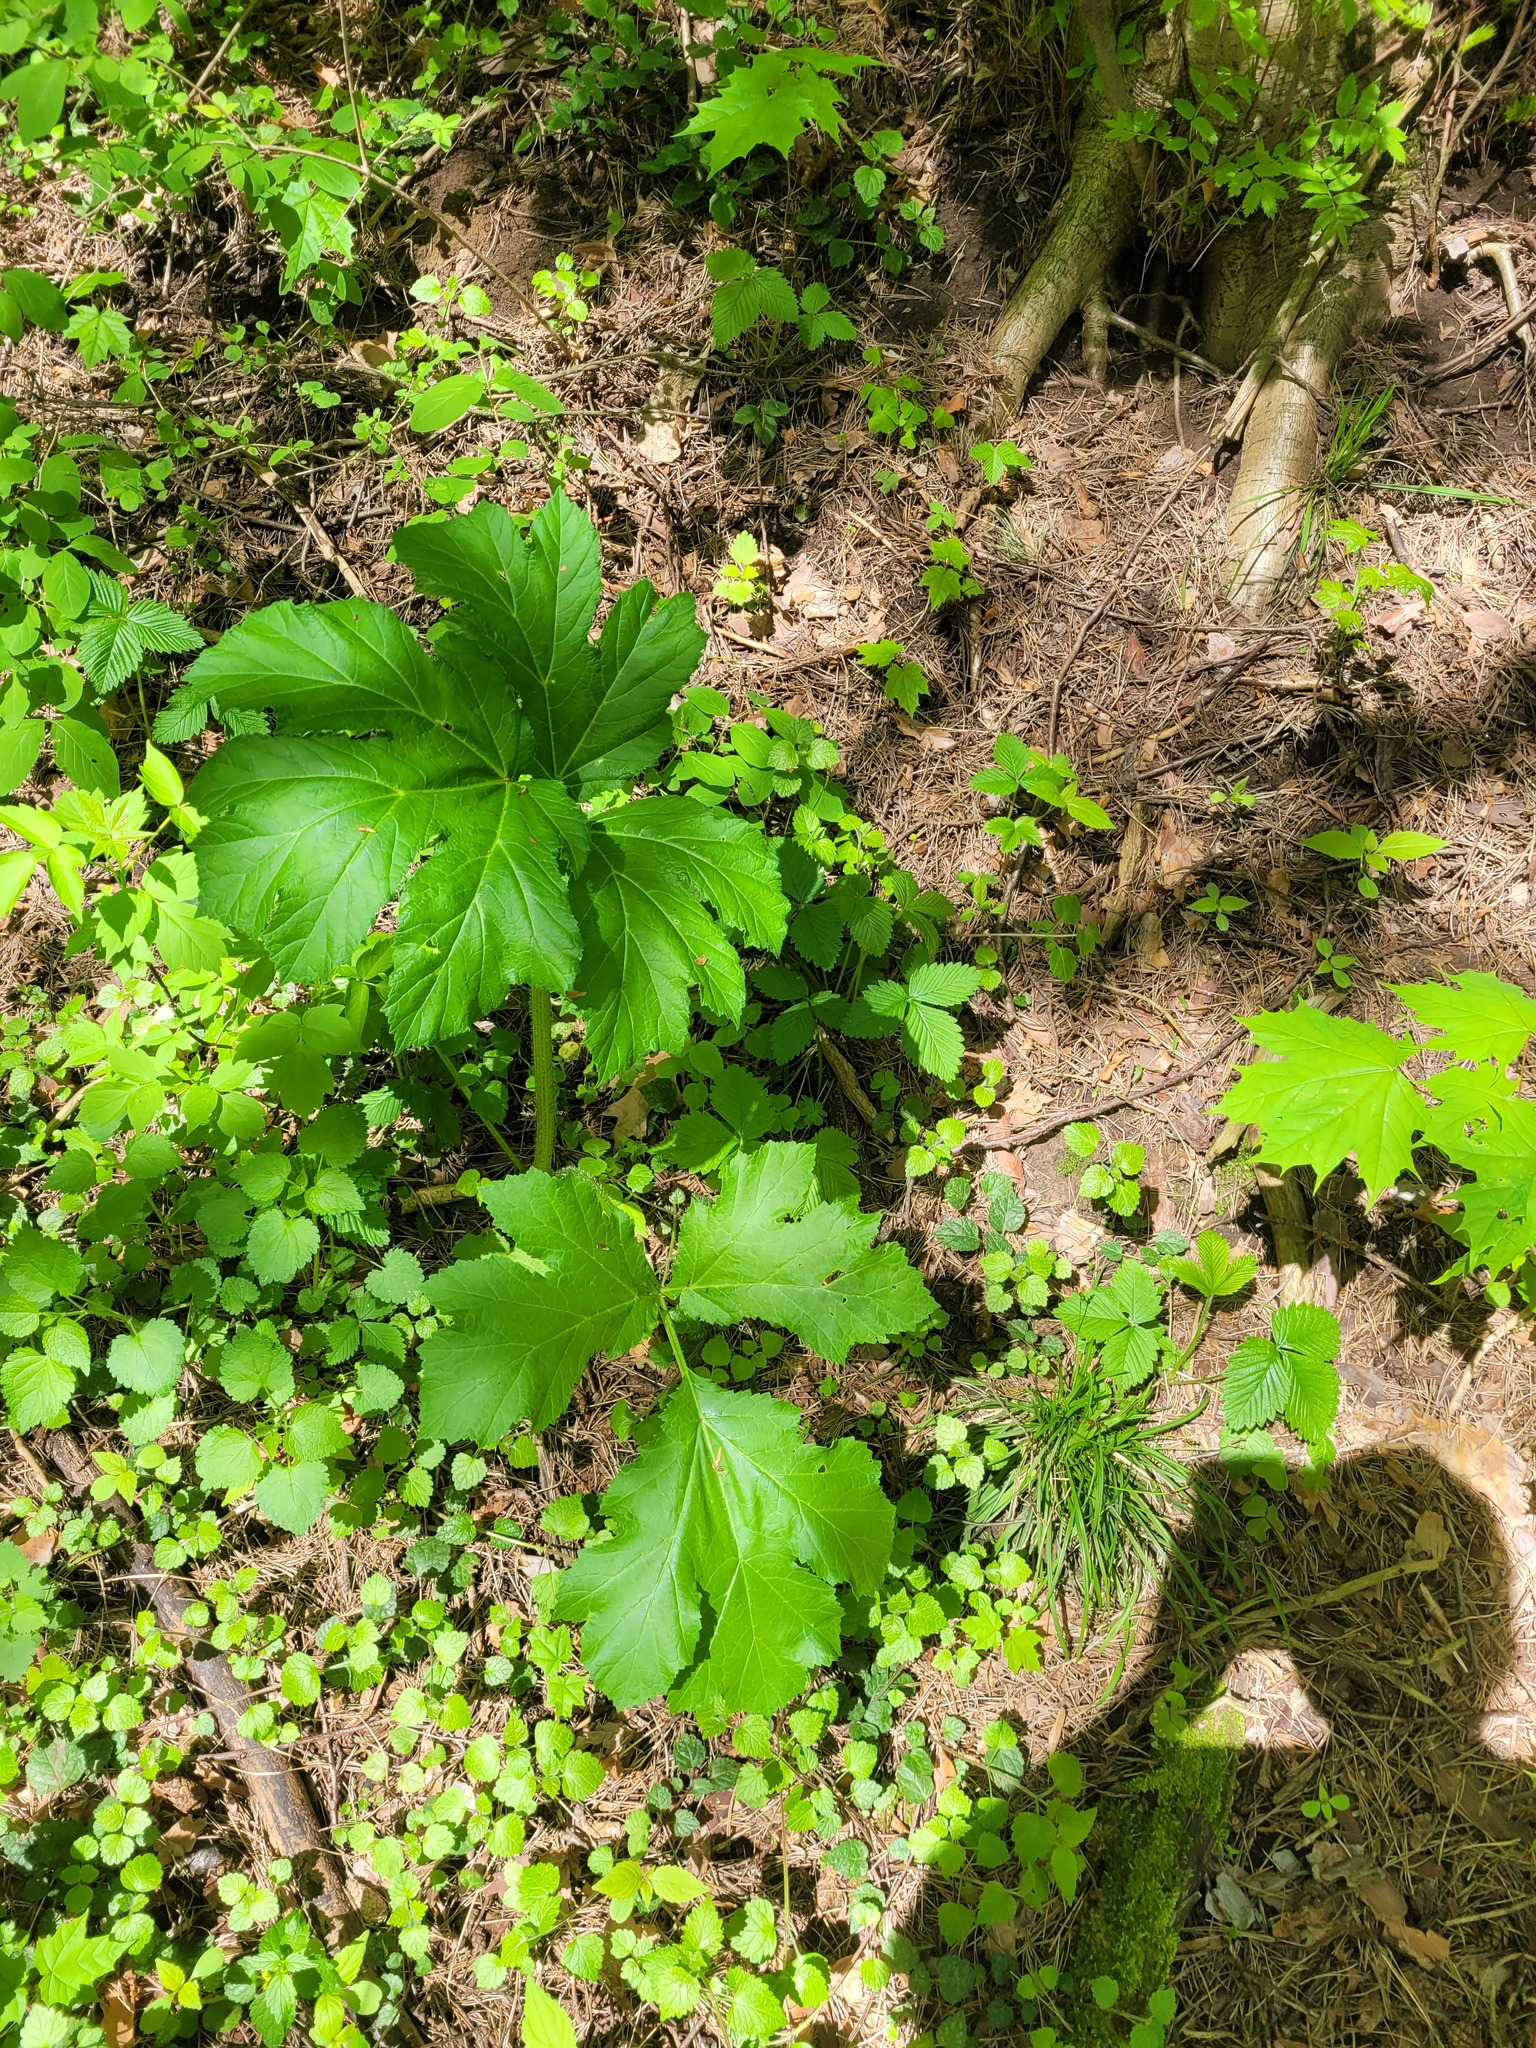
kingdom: Plantae
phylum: Tracheophyta
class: Magnoliopsida
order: Apiales
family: Apiaceae
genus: Heracleum
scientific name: Heracleum sosnowskyi
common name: Sosnowsky's hogweed
